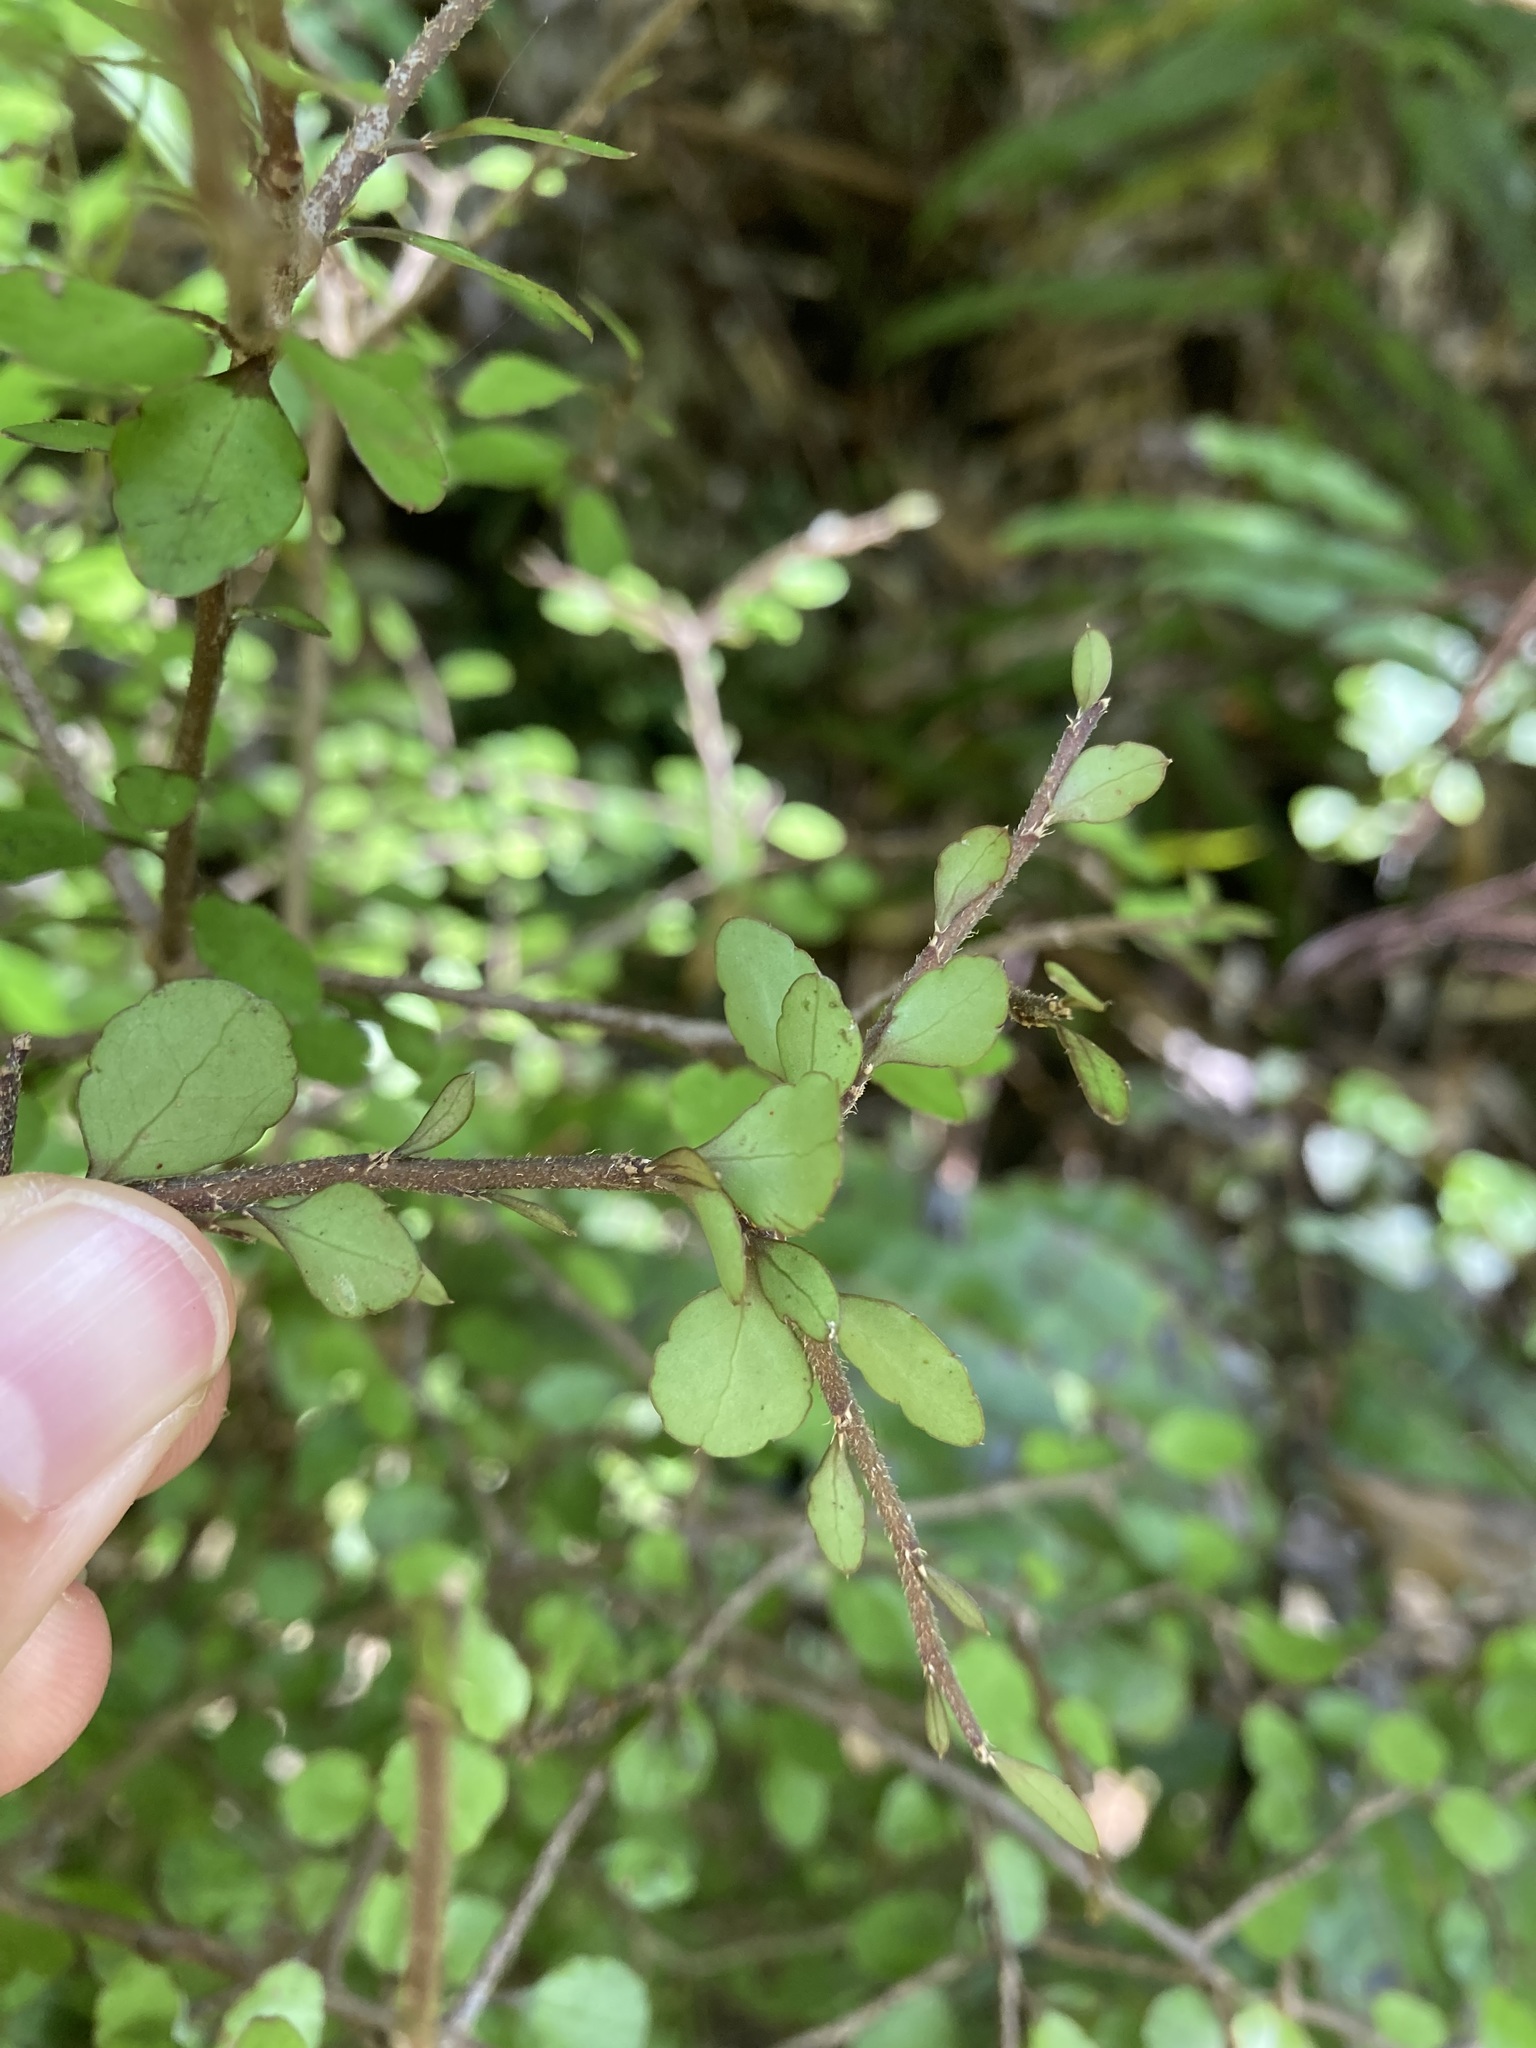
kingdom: Plantae
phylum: Tracheophyta
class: Magnoliopsida
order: Apiales
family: Araliaceae
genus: Raukaua
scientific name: Raukaua anomalus
